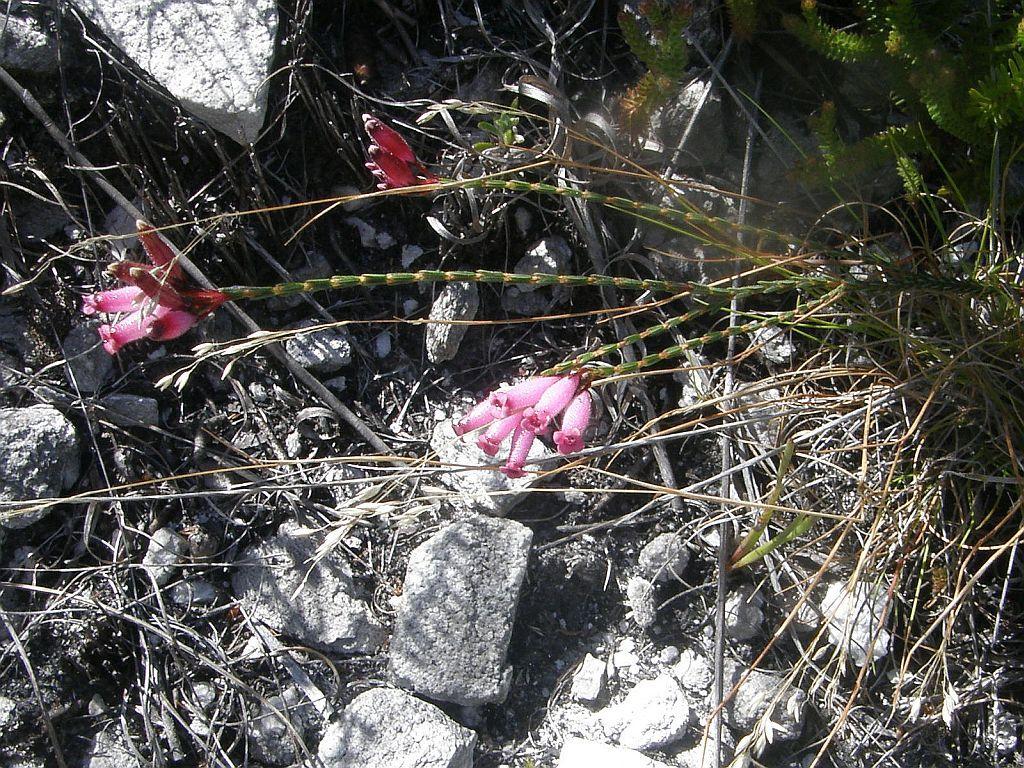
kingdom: Plantae
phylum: Tracheophyta
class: Magnoliopsida
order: Ericales
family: Ericaceae
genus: Erica
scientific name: Erica cristata
